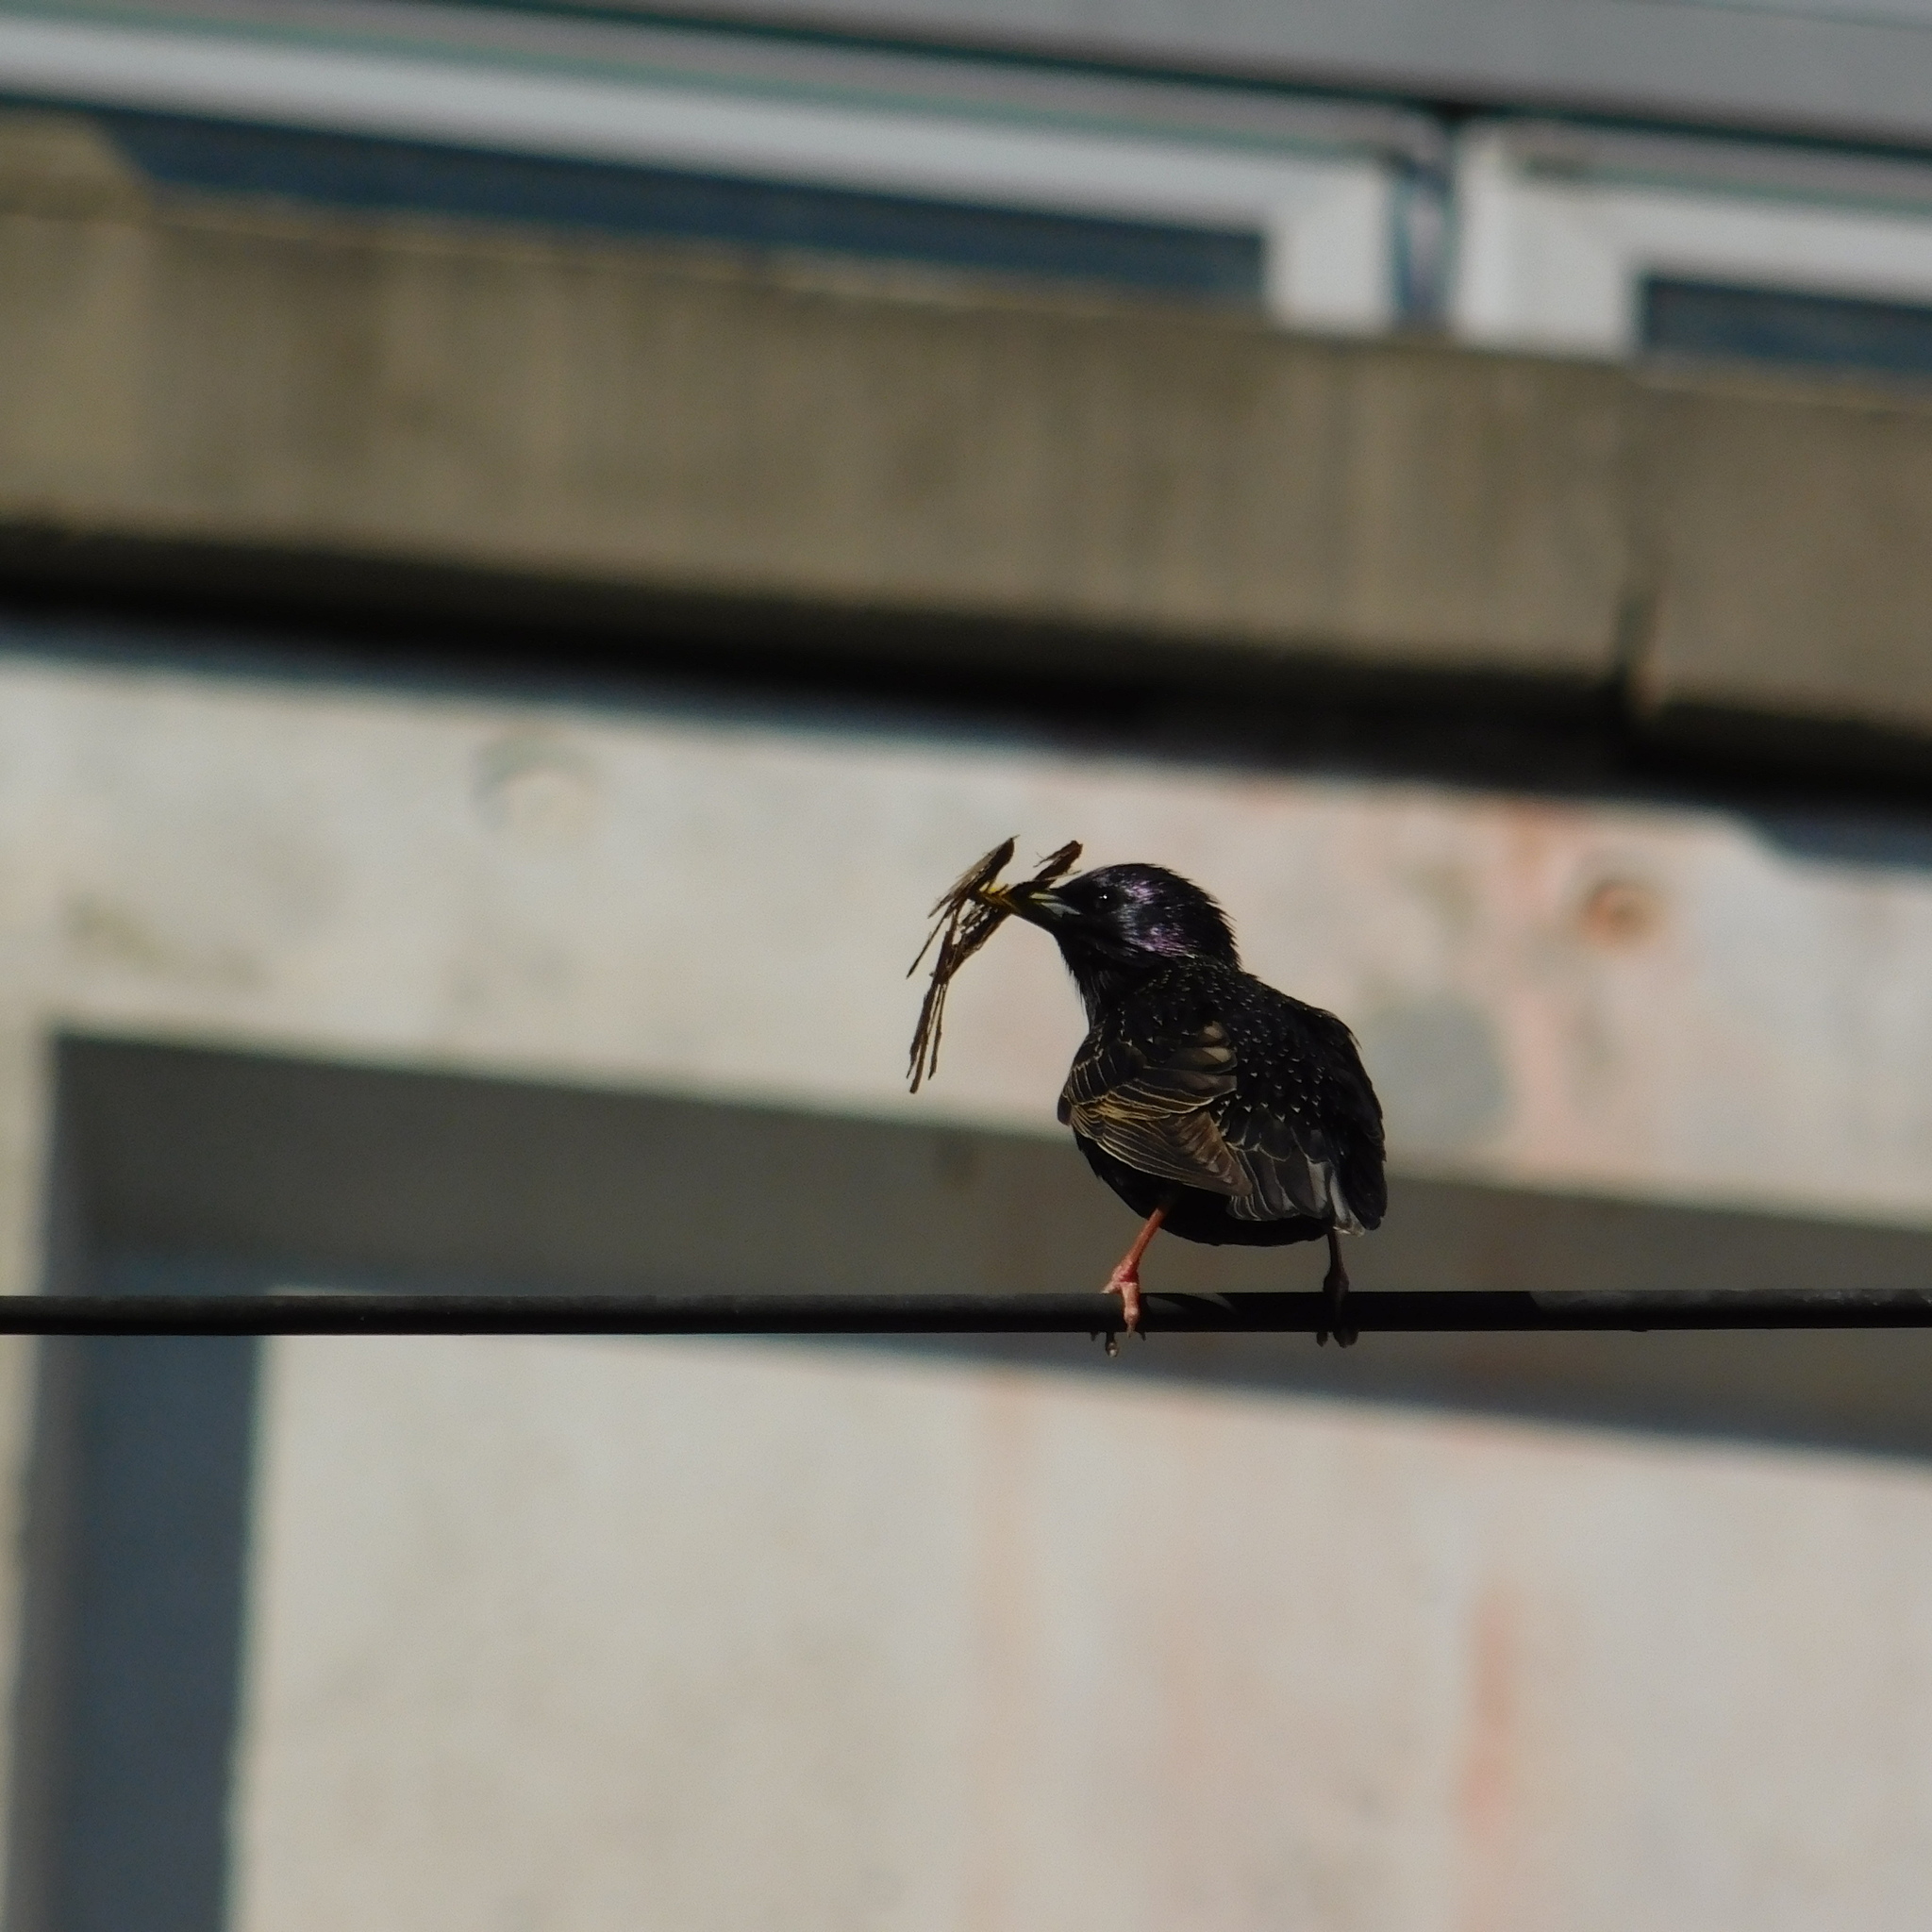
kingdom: Animalia
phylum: Chordata
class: Aves
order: Passeriformes
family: Sturnidae
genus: Sturnus
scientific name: Sturnus vulgaris
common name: Common starling
